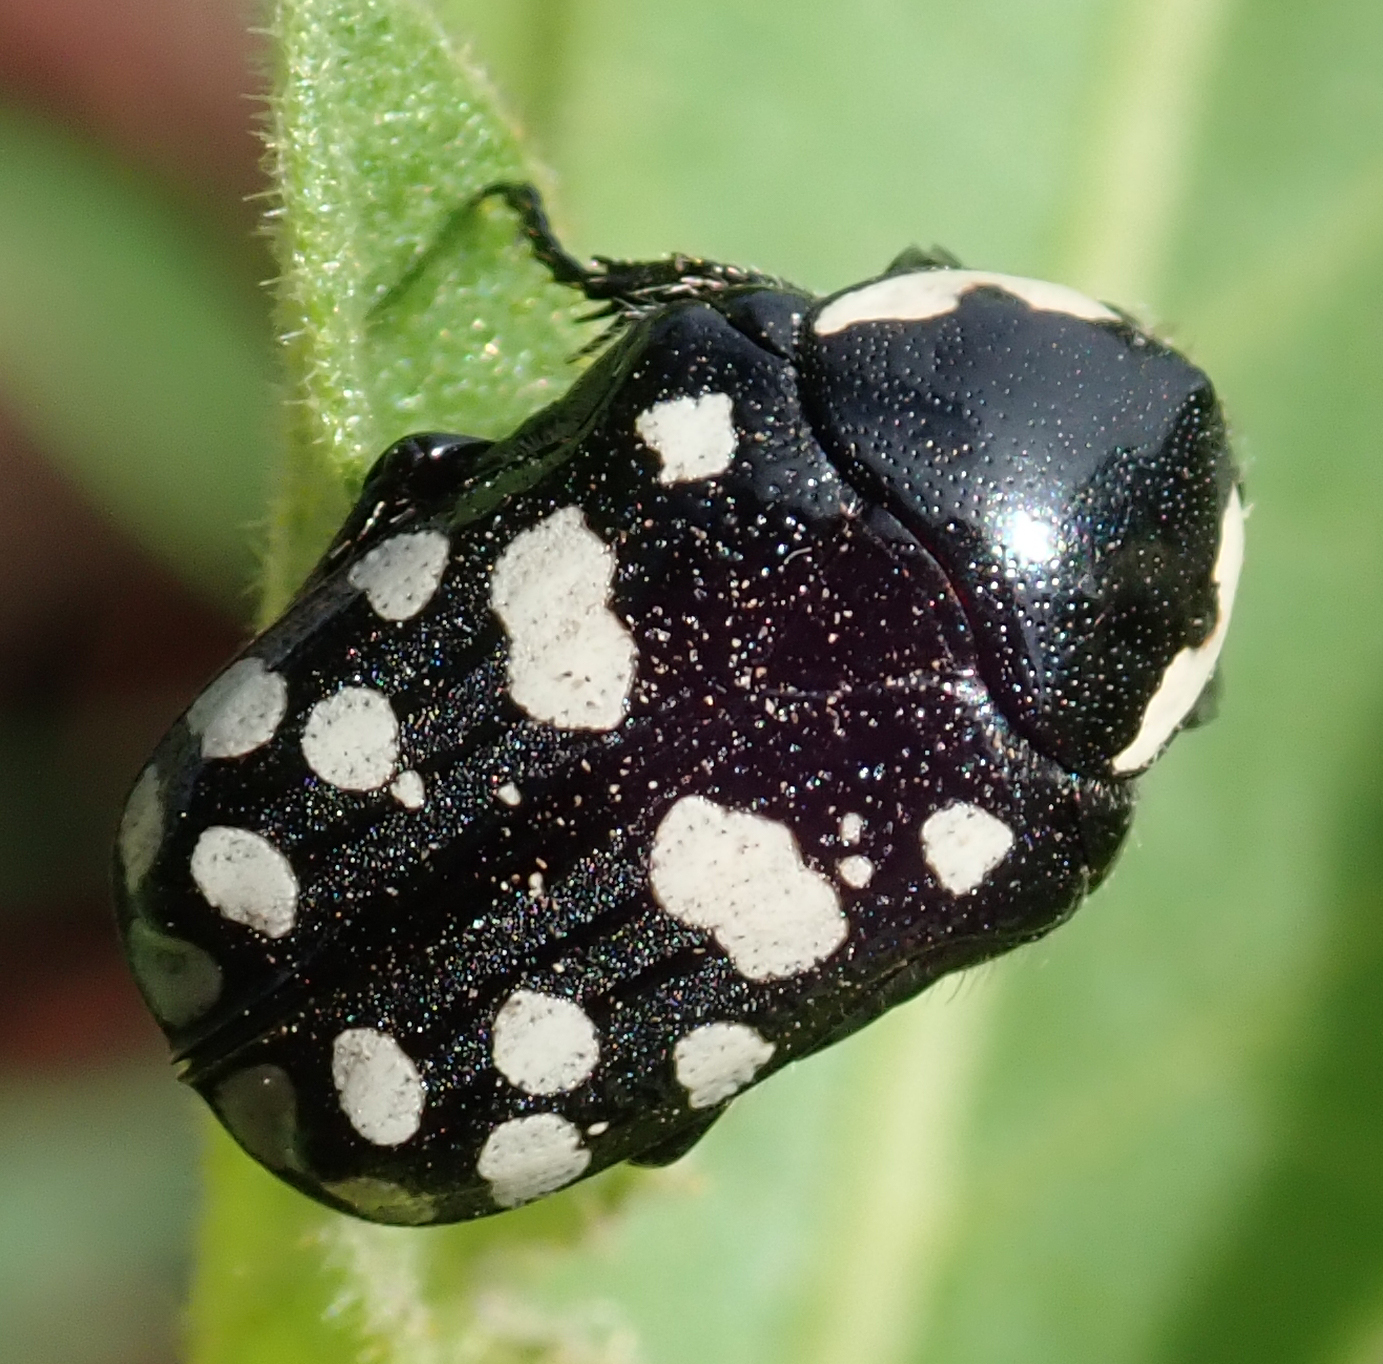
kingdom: Animalia
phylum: Arthropoda
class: Insecta
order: Coleoptera
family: Scarabaeidae
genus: Phoxomela
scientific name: Phoxomela umbrosa
